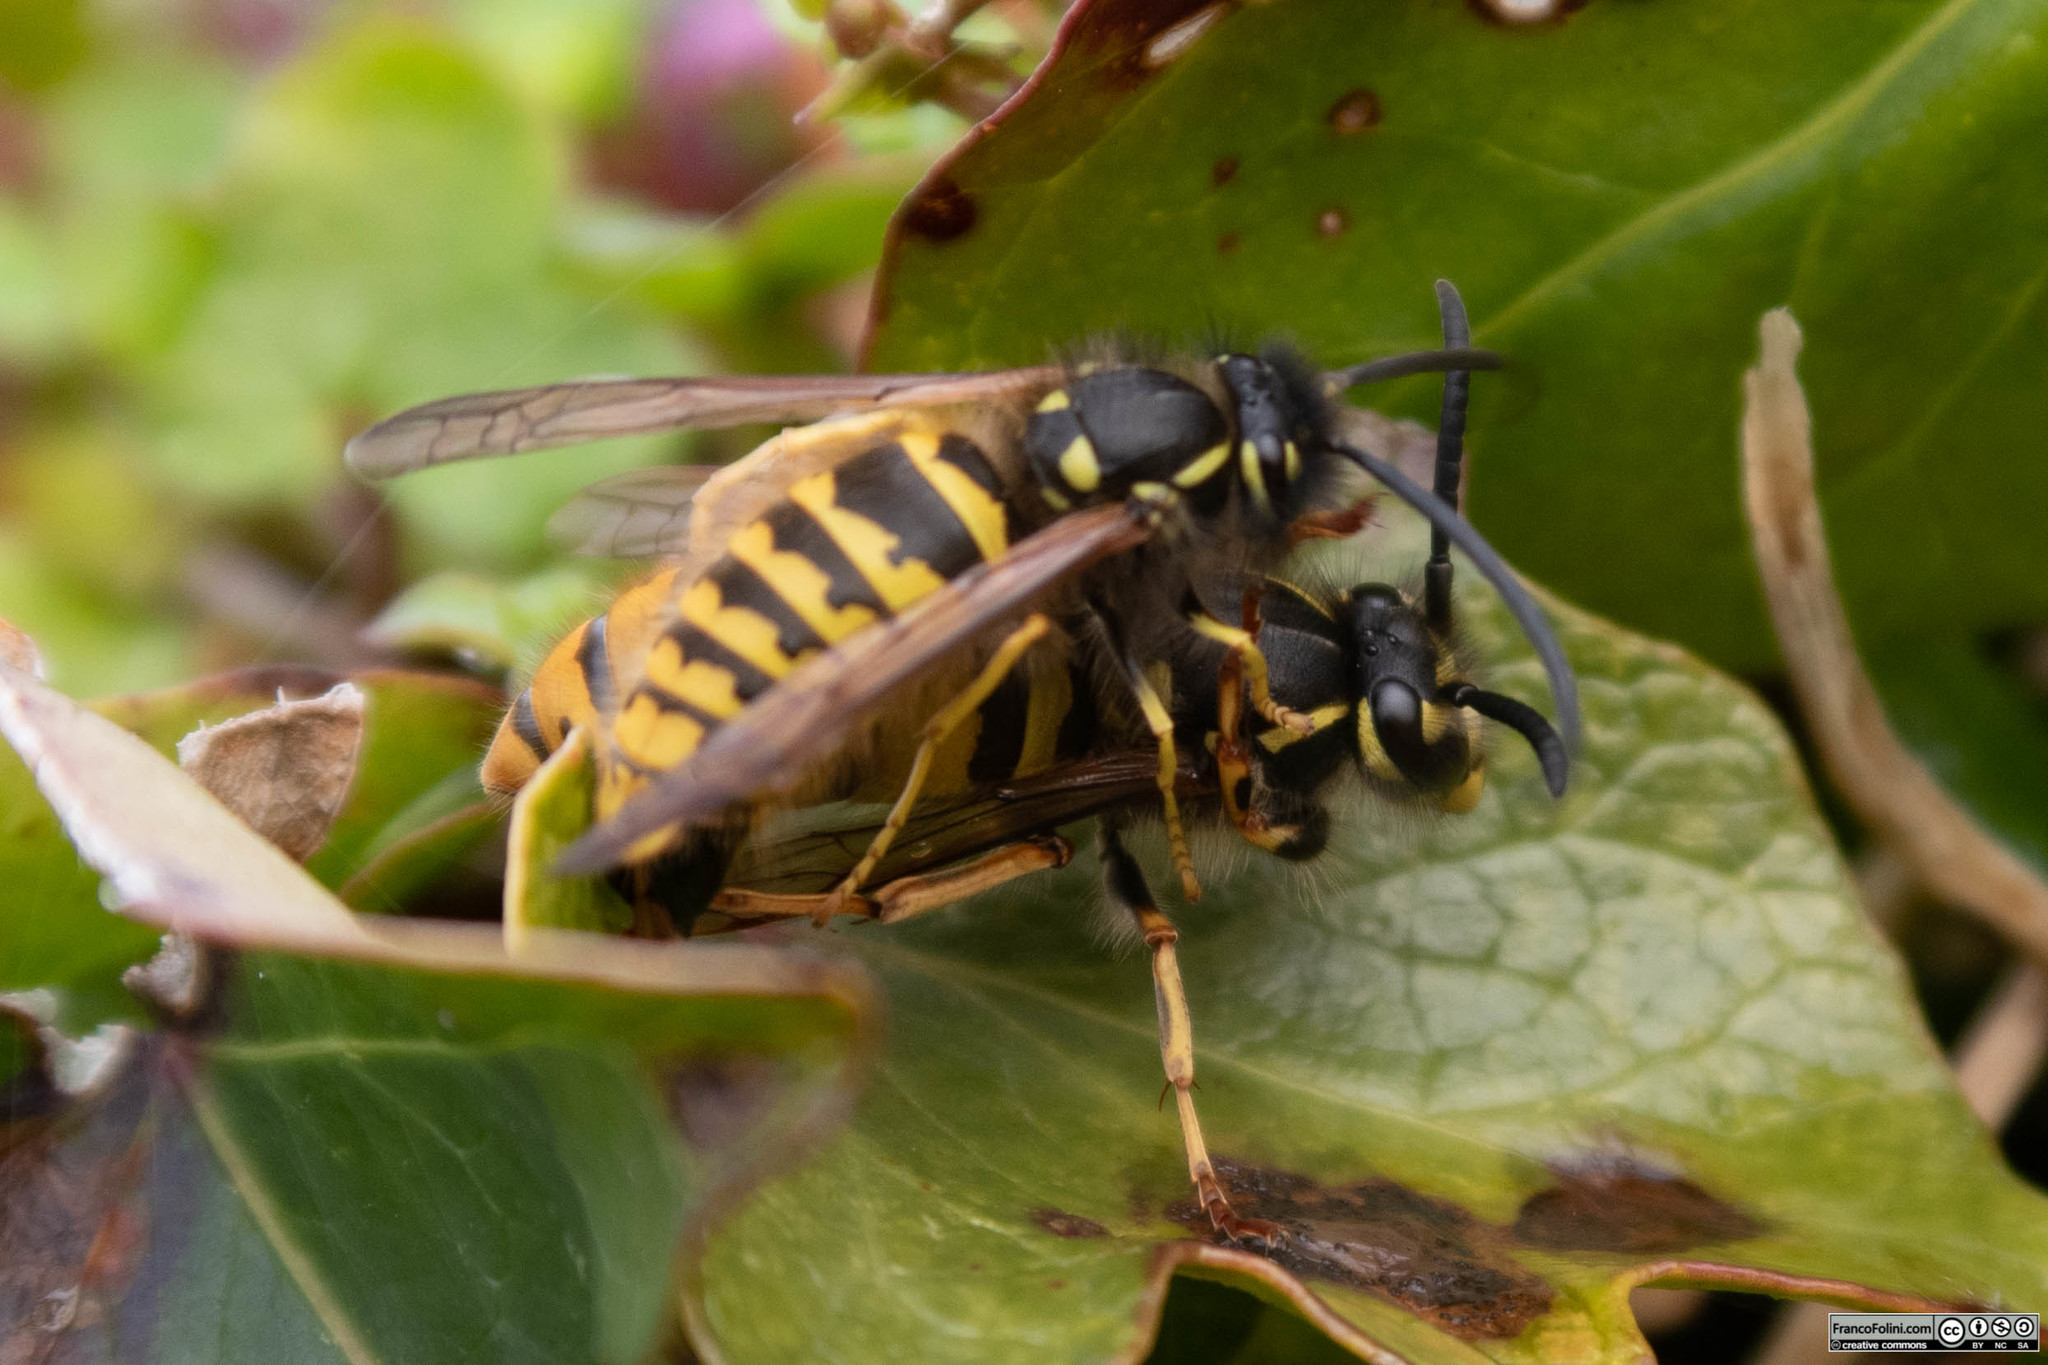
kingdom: Animalia
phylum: Arthropoda
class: Insecta
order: Hymenoptera
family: Vespidae
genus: Vespula
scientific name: Vespula vulgaris
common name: Common wasp
